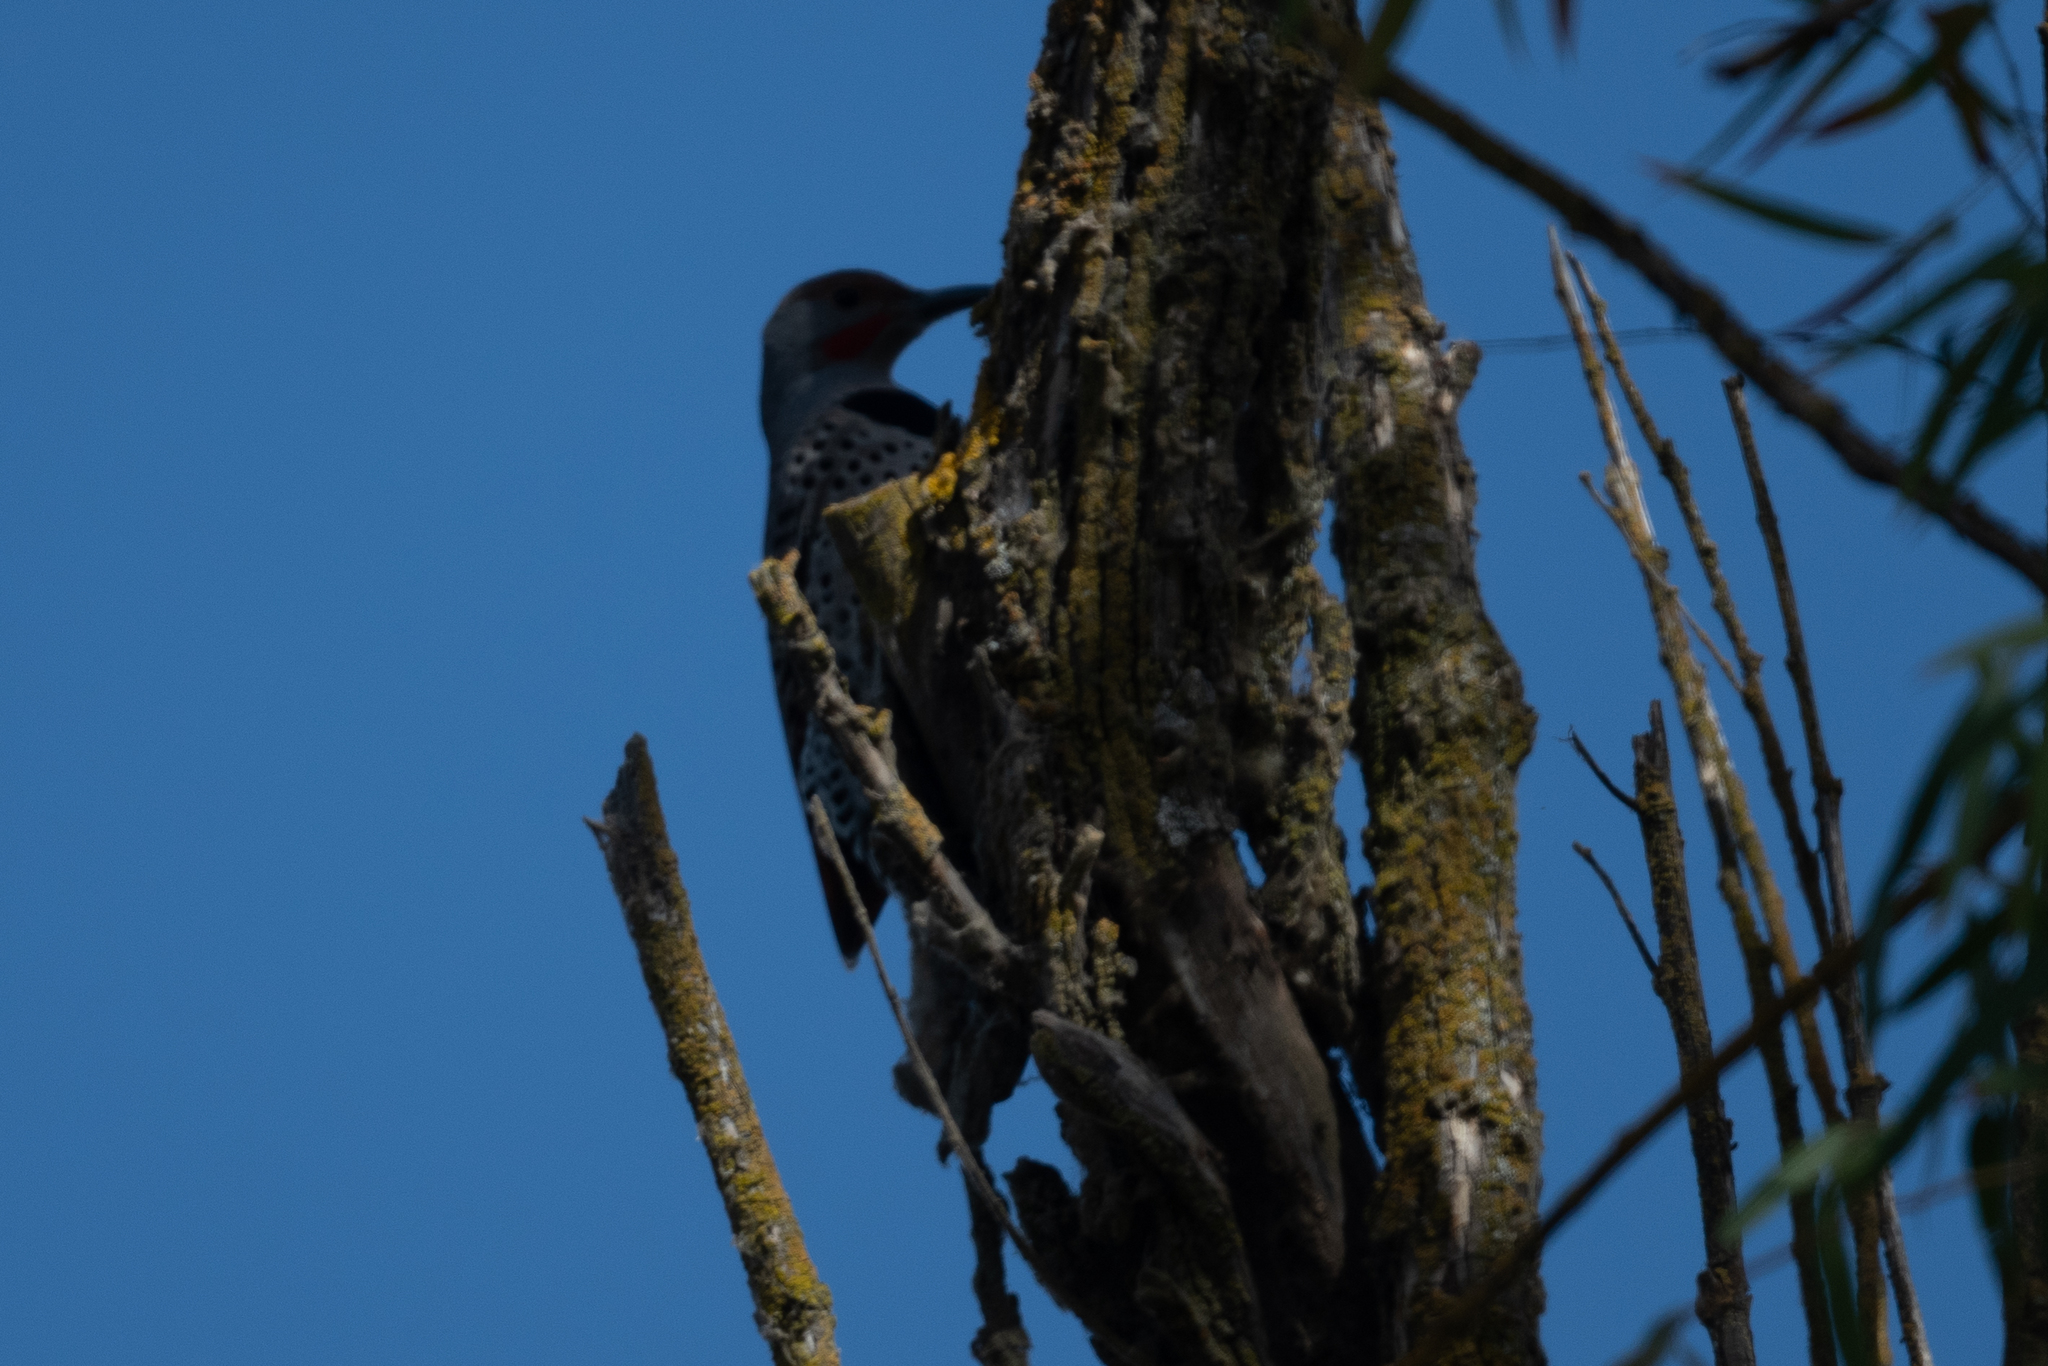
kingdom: Animalia
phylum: Chordata
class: Aves
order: Piciformes
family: Picidae
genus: Colaptes
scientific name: Colaptes auratus
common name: Northern flicker
